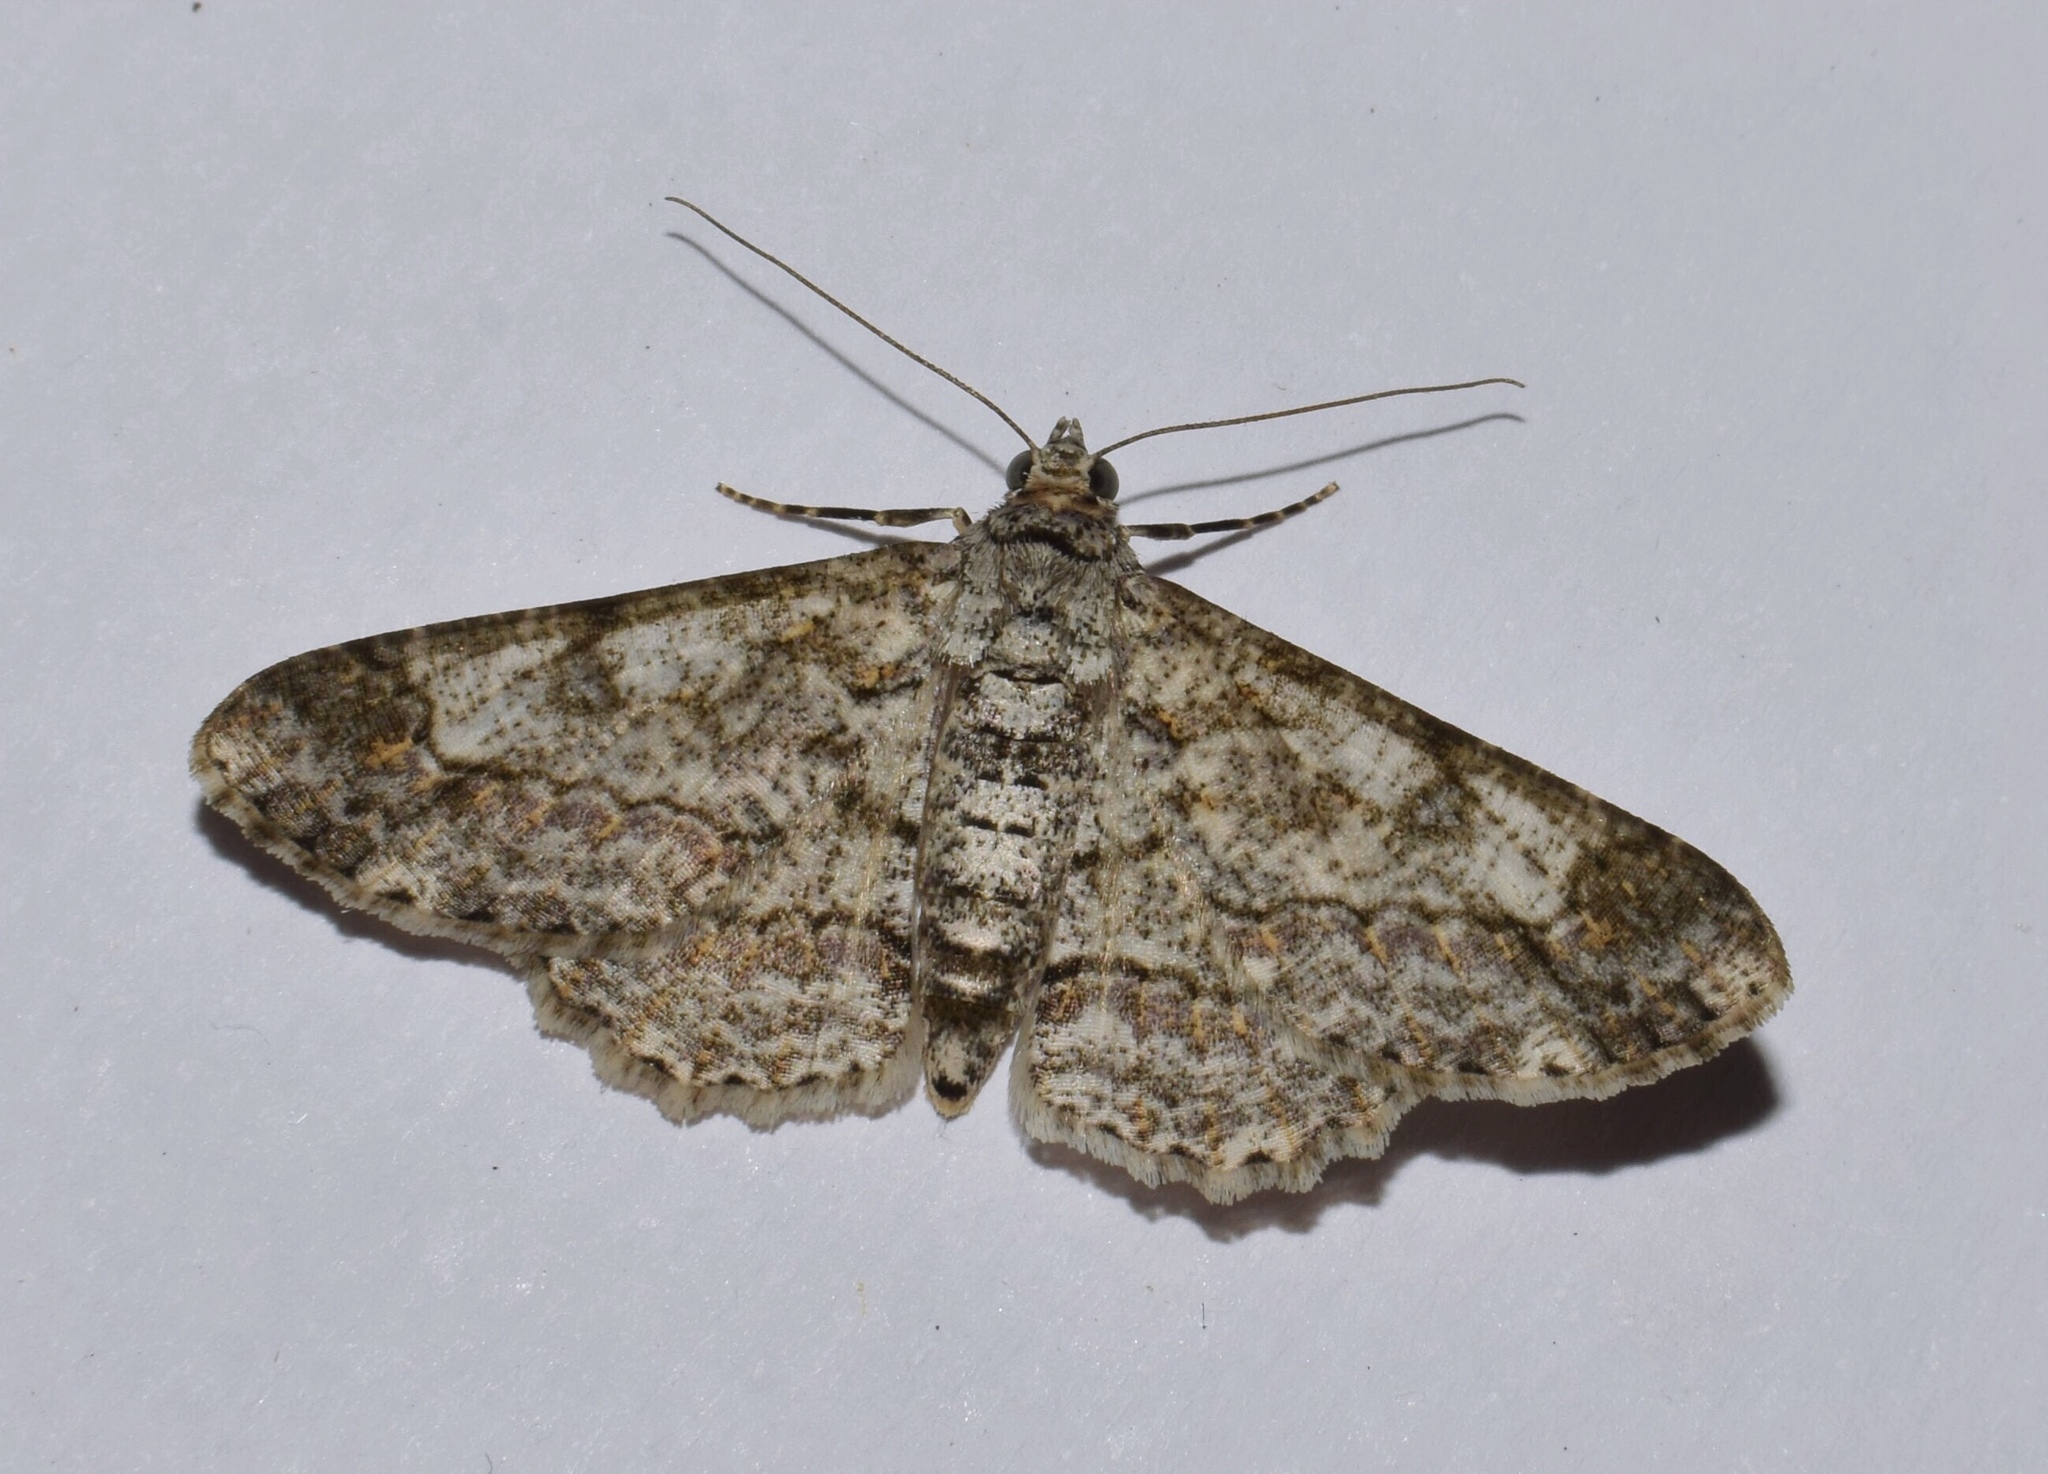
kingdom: Animalia
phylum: Arthropoda
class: Insecta
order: Lepidoptera
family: Geometridae
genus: Cleora
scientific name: Cleora tulbaghata
